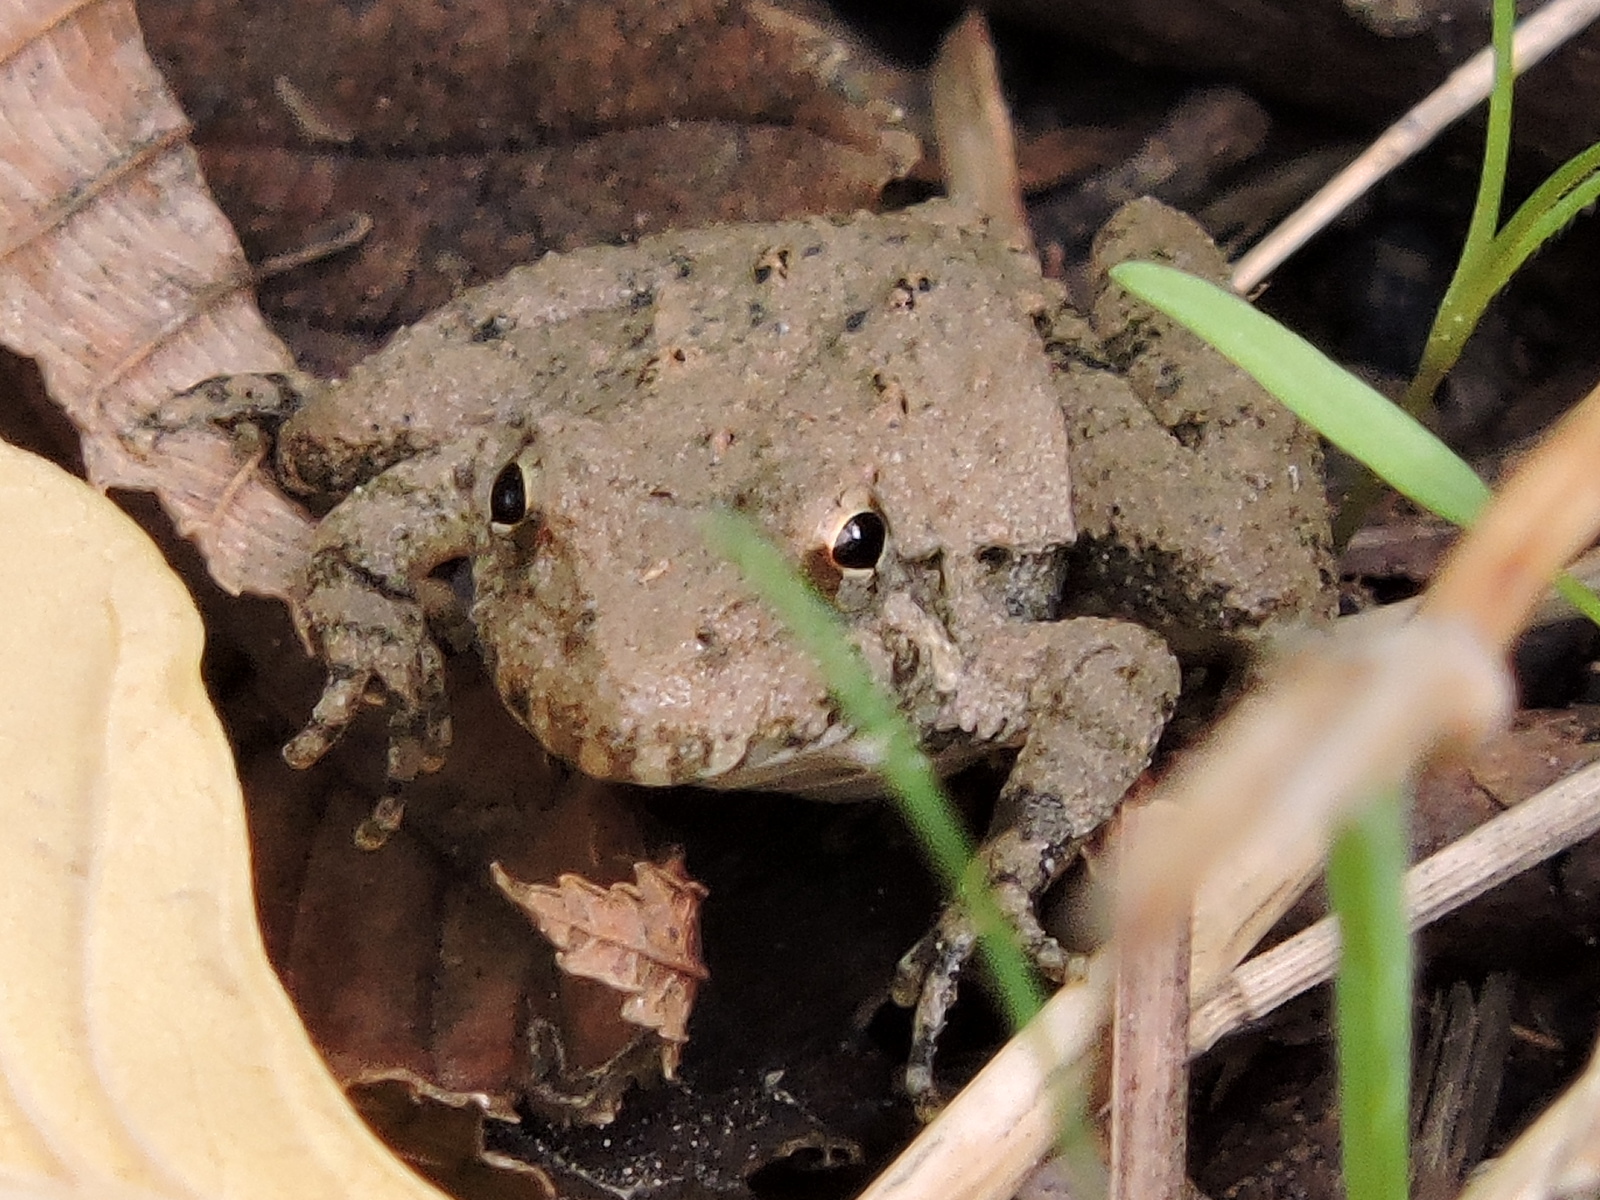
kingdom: Animalia
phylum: Chordata
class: Amphibia
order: Anura
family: Hylidae
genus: Acris
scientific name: Acris blanchardi
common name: Blanchard's cricket frog
